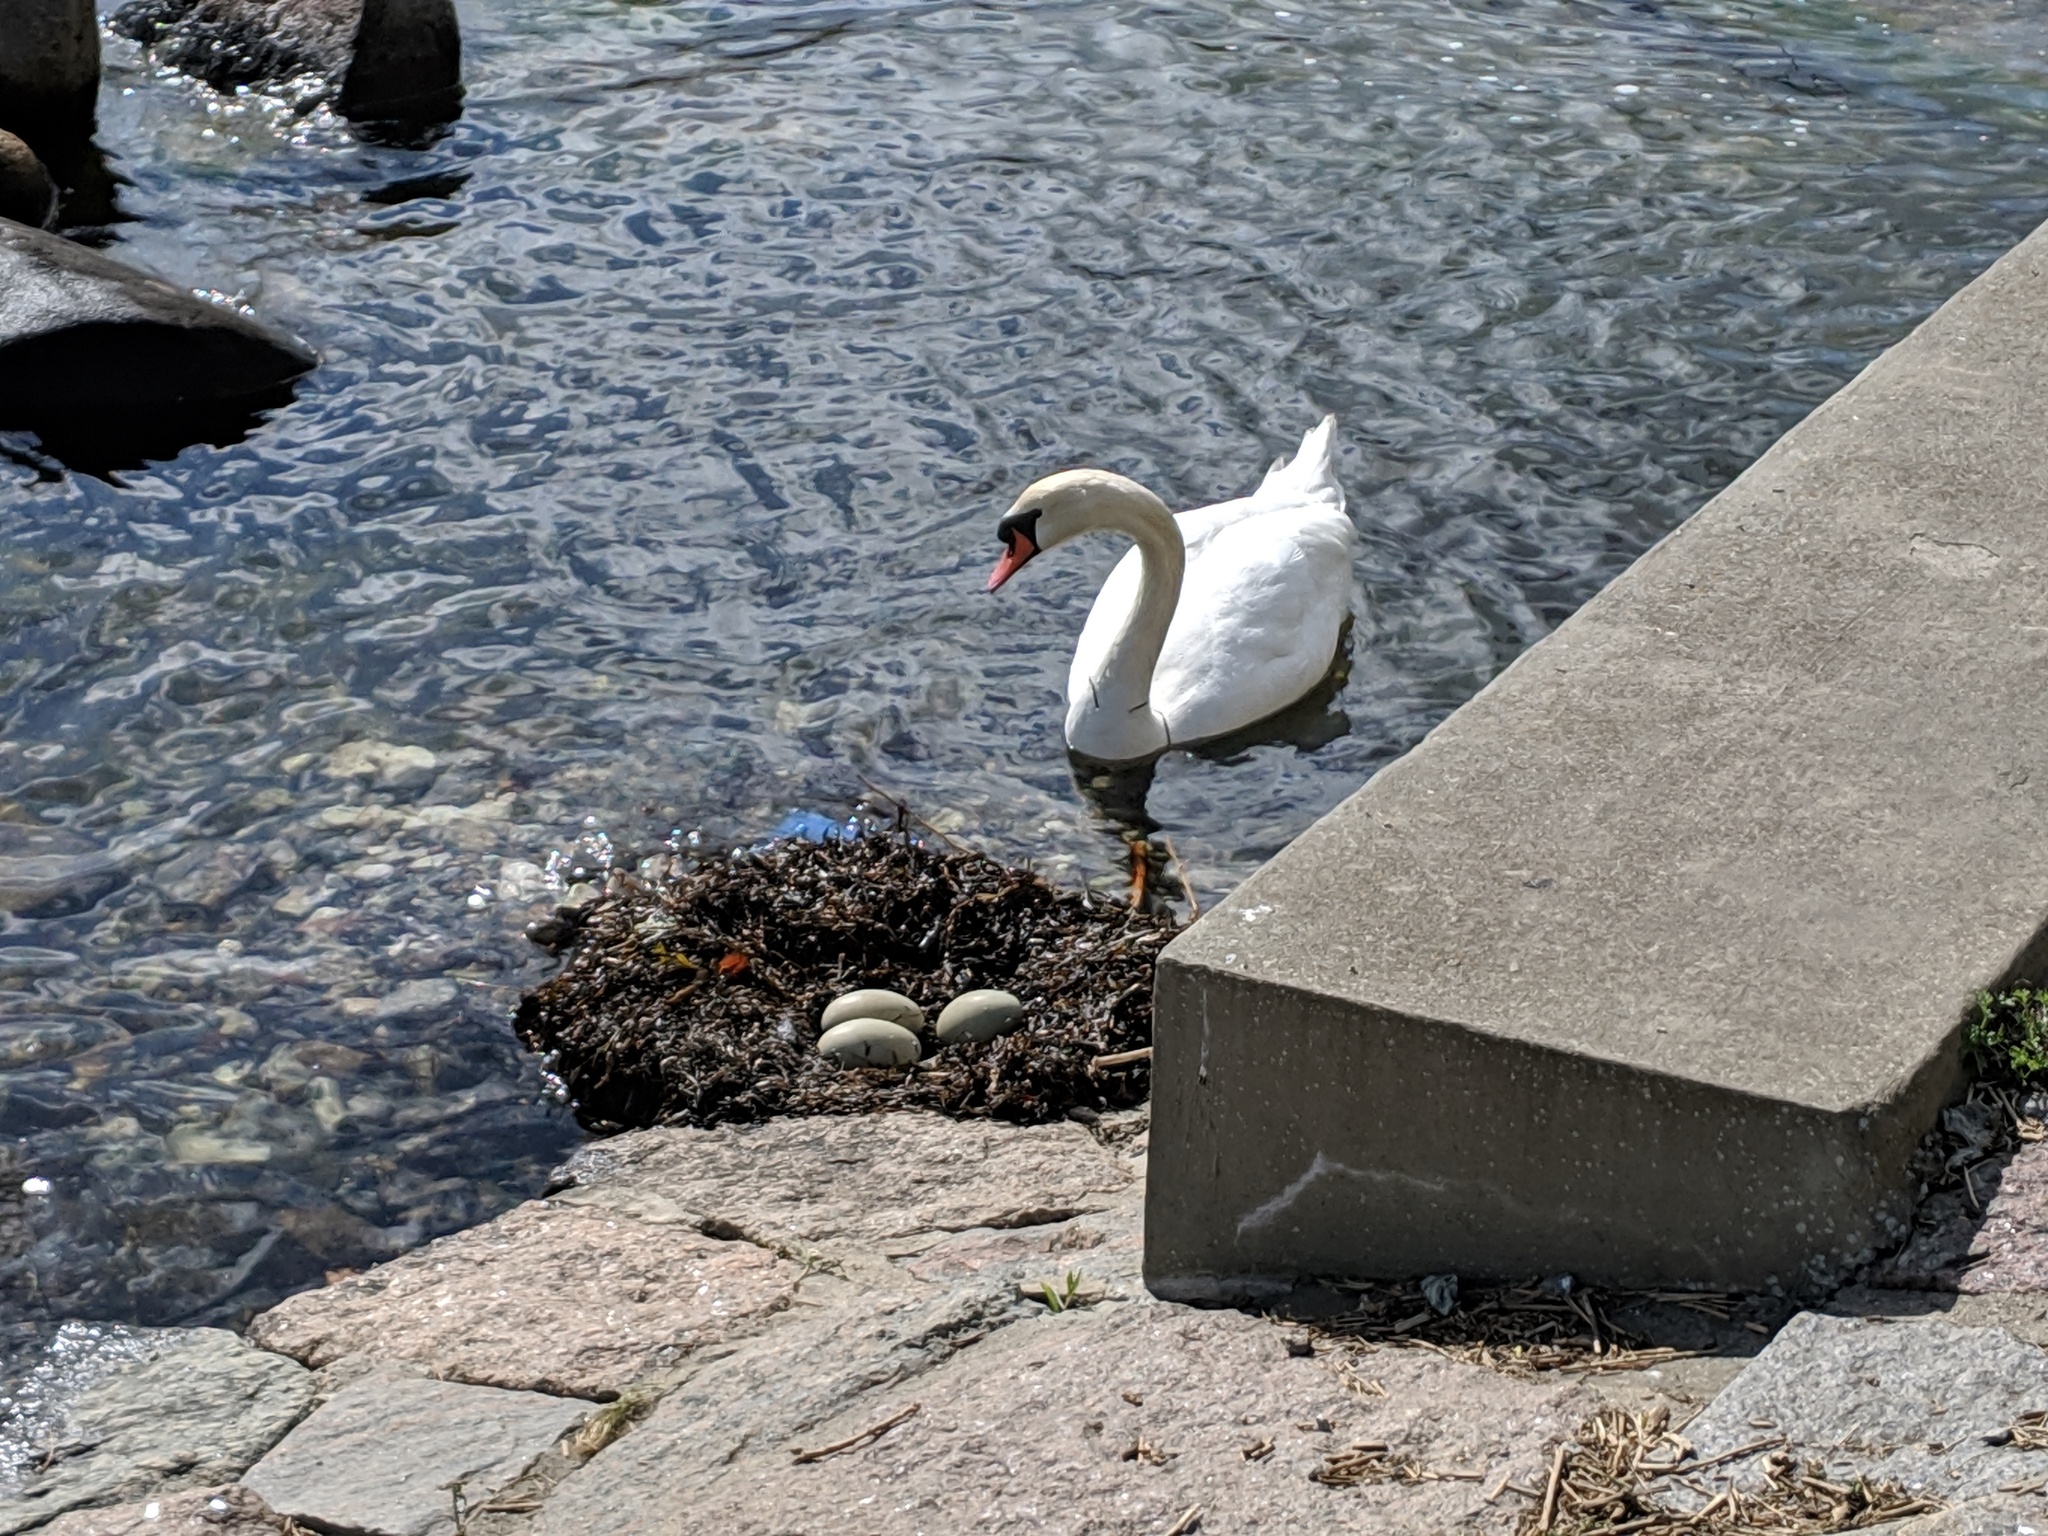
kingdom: Animalia
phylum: Chordata
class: Aves
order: Anseriformes
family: Anatidae
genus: Cygnus
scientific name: Cygnus olor
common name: Mute swan
